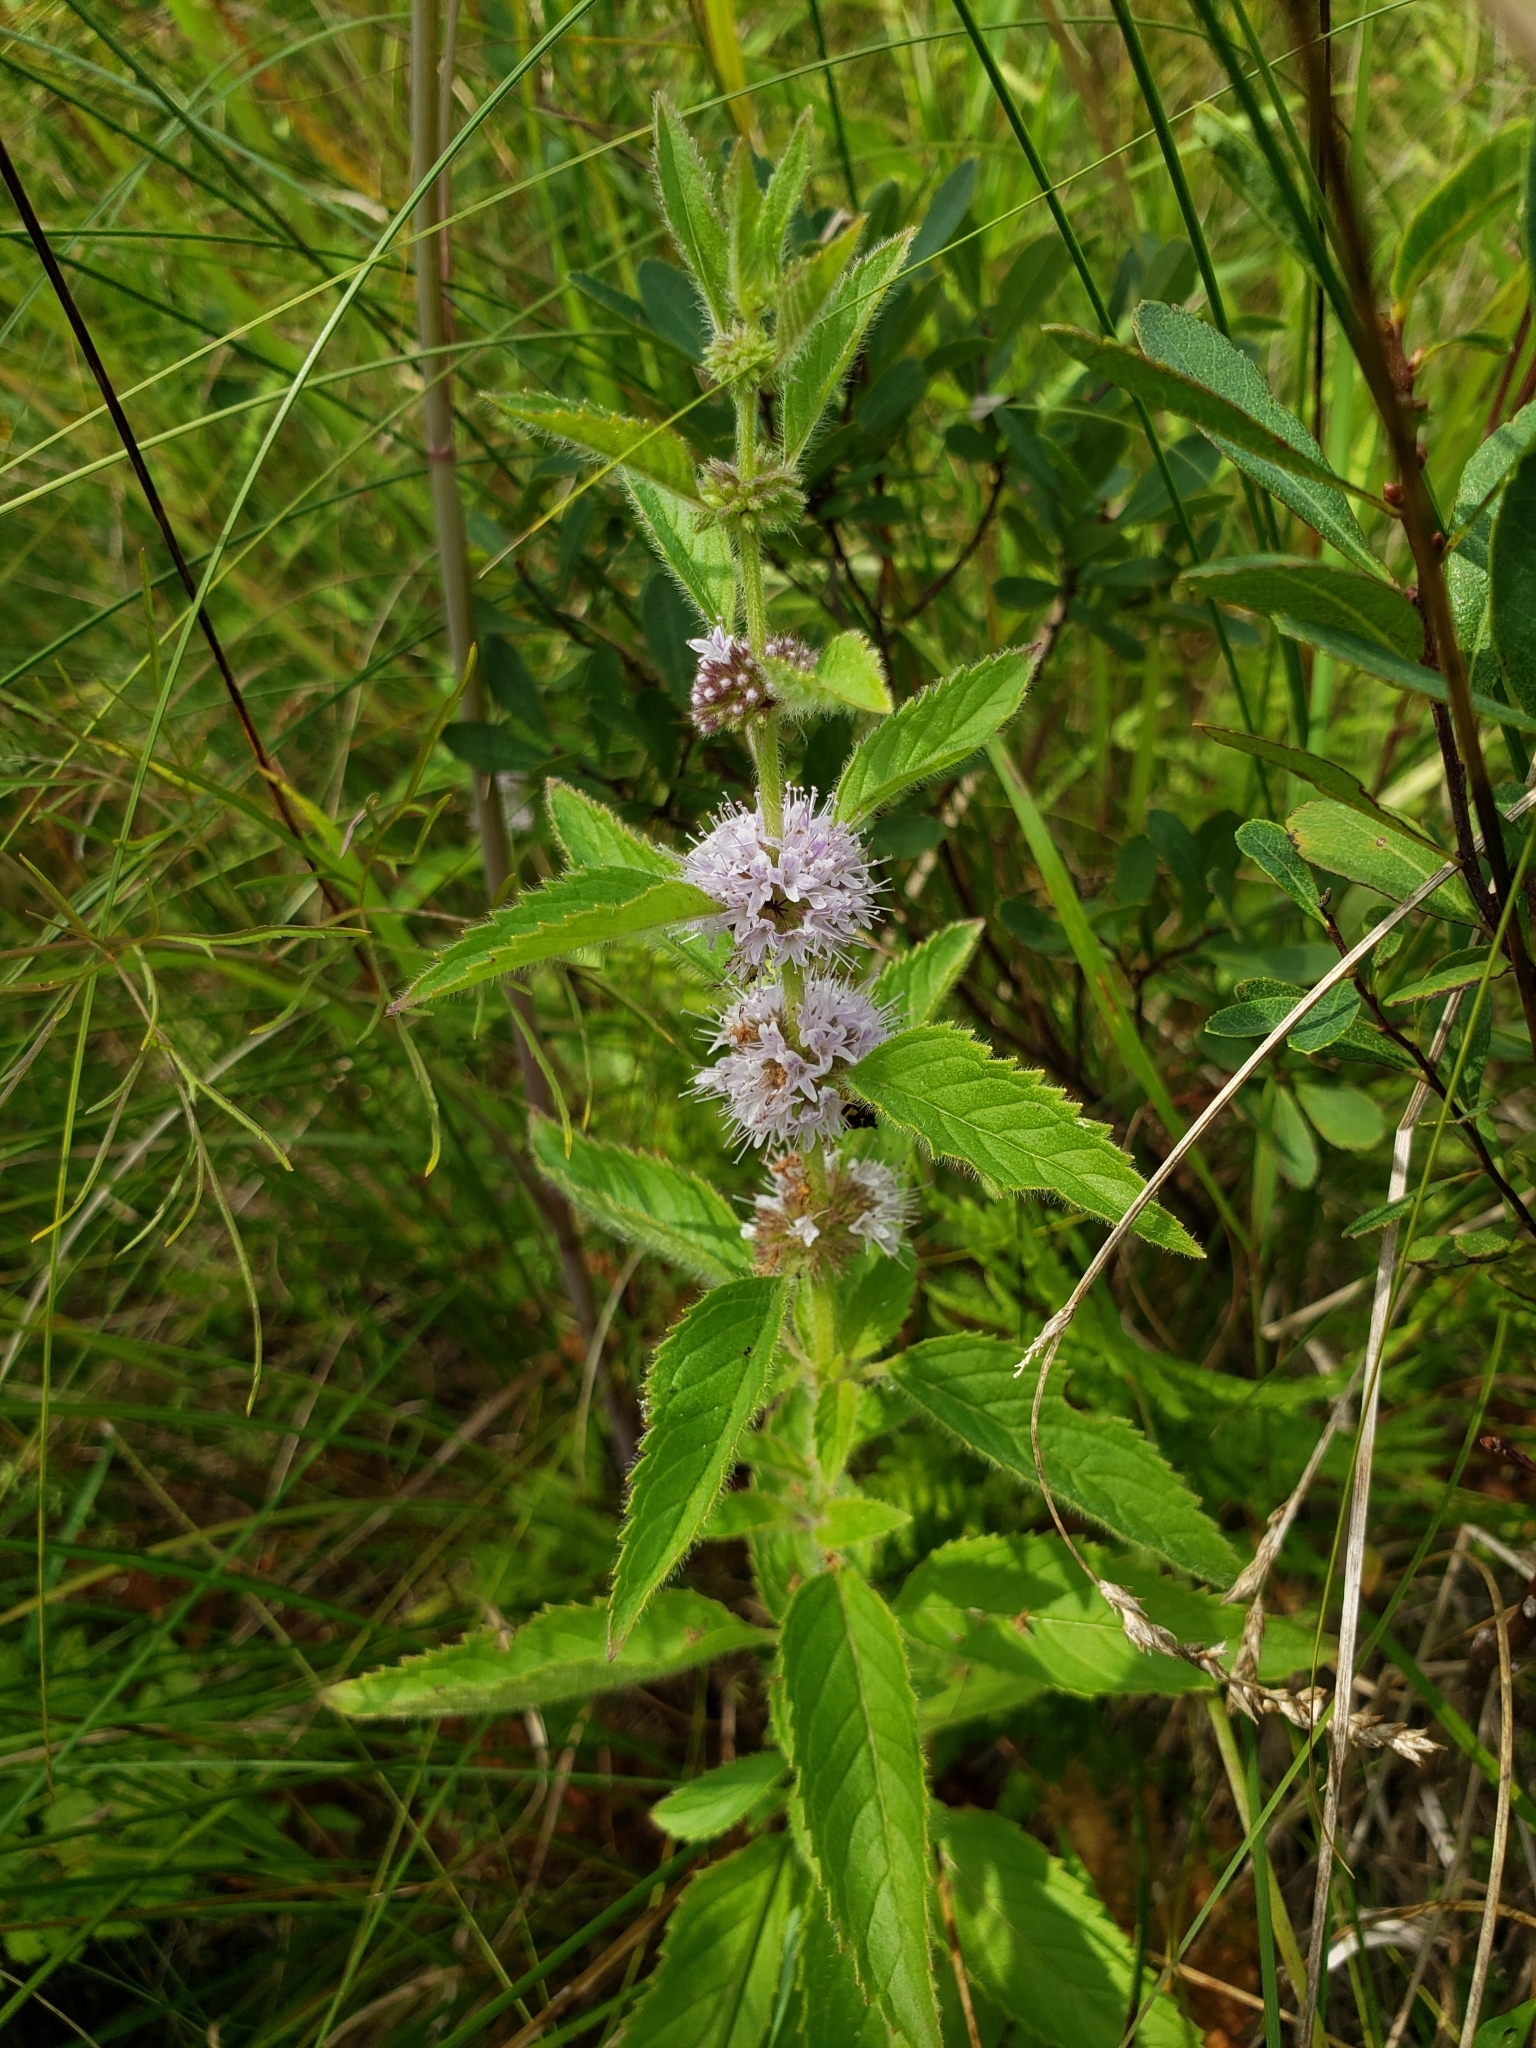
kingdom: Plantae
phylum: Tracheophyta
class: Magnoliopsida
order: Lamiales
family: Lamiaceae
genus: Mentha
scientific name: Mentha canadensis
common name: American corn mint
